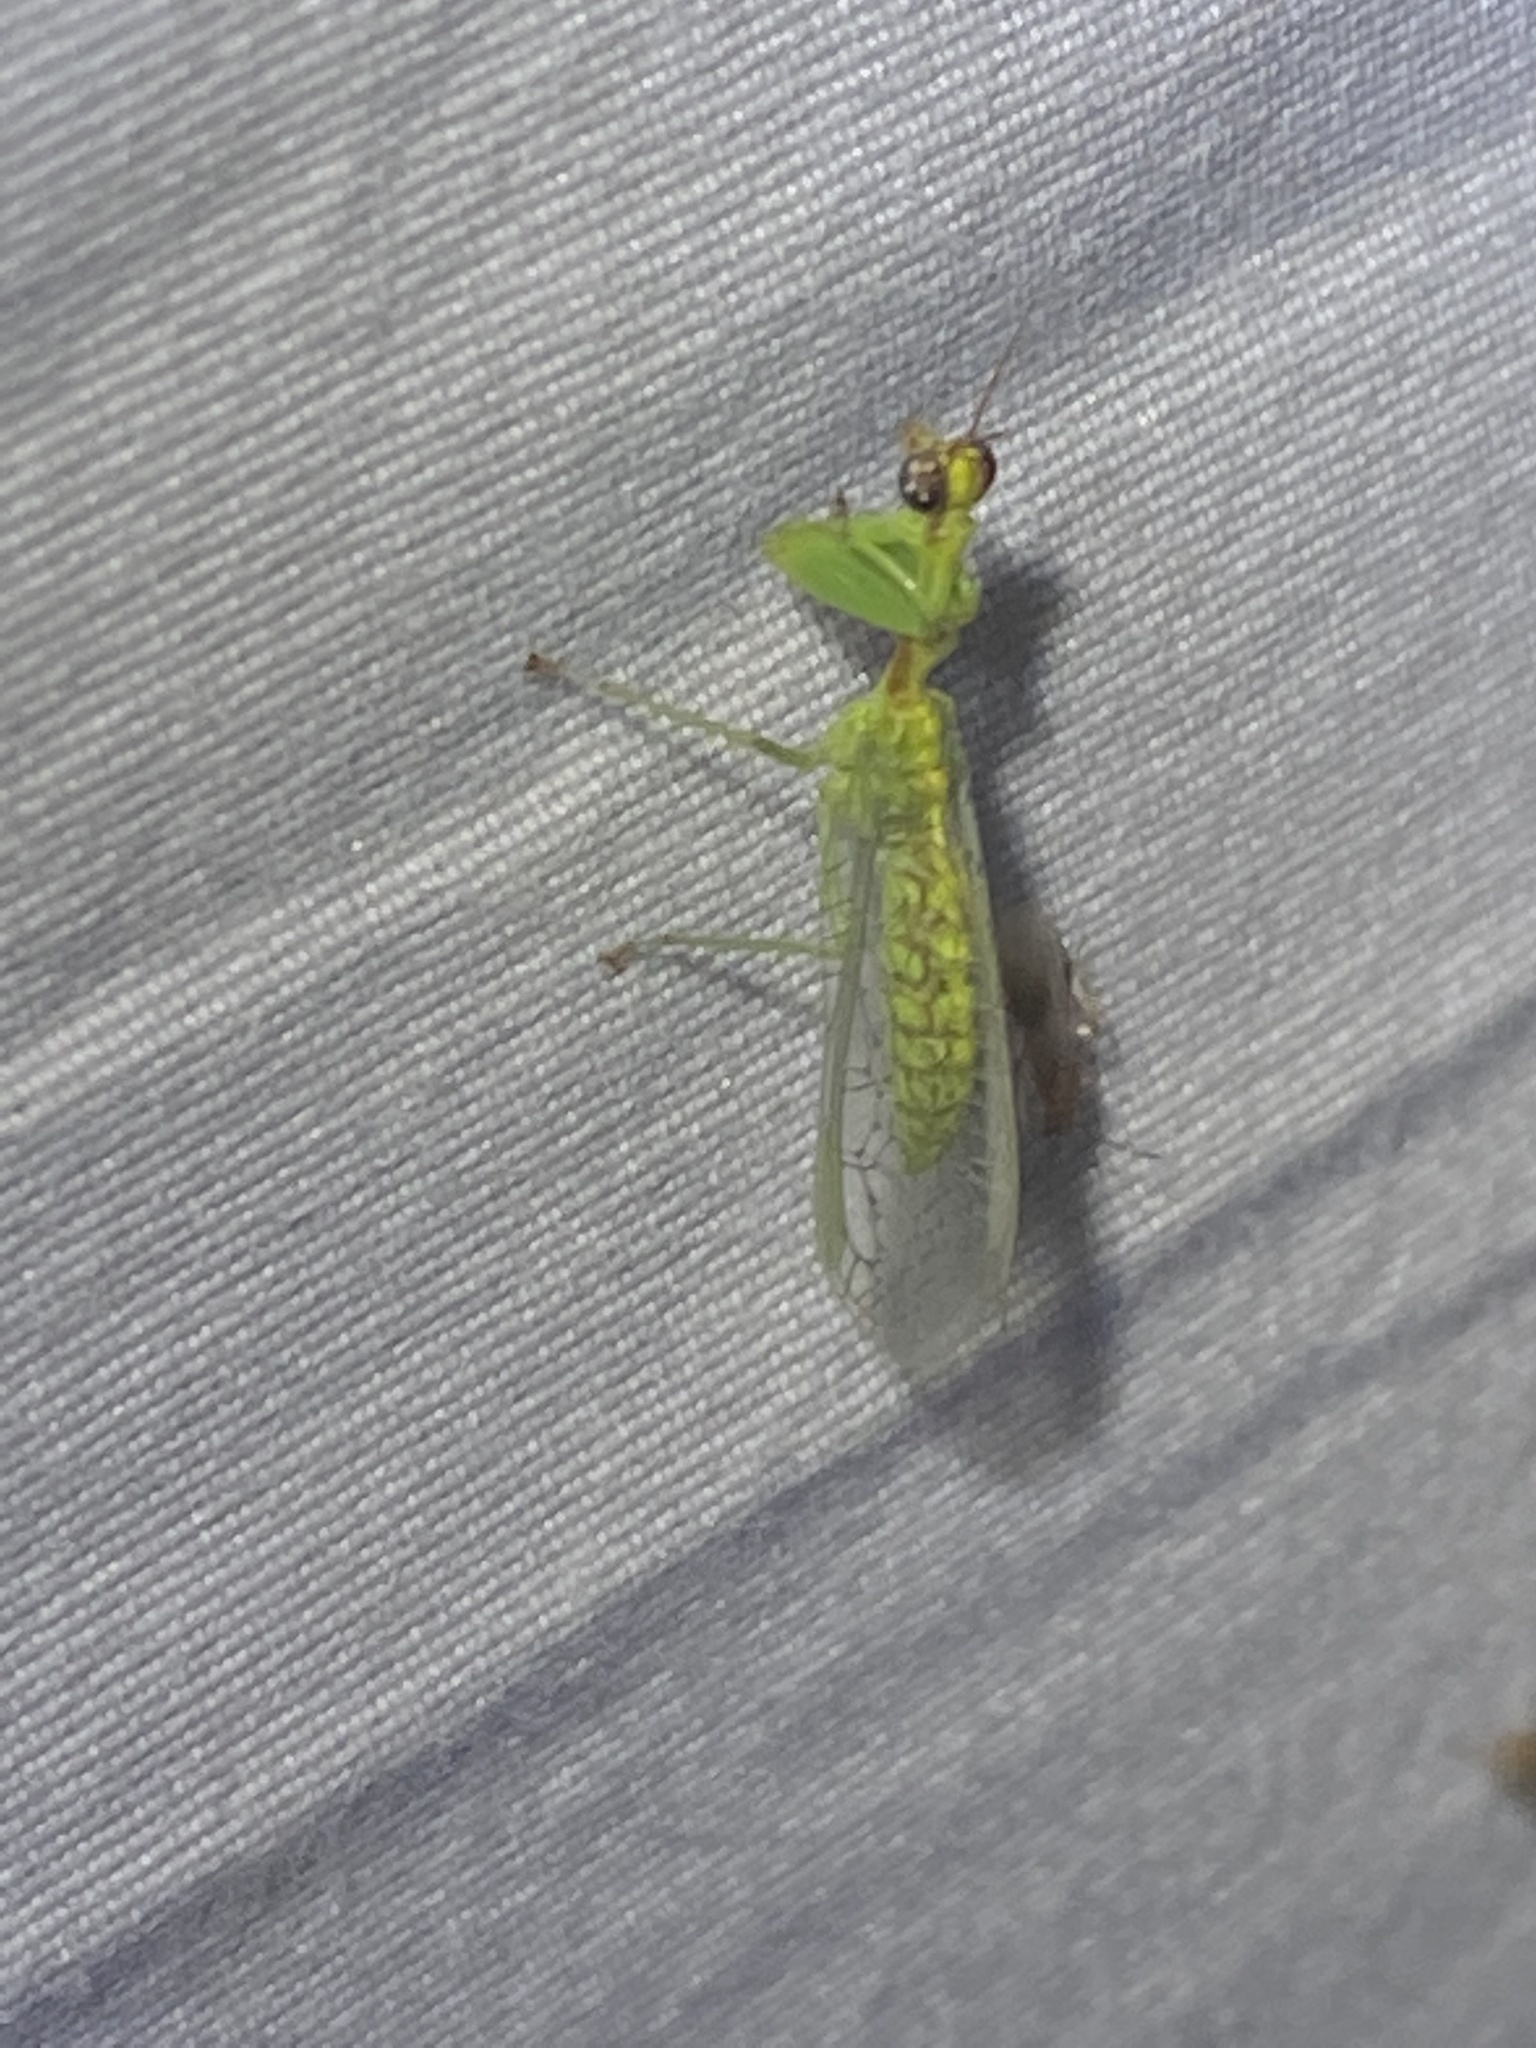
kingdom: Animalia
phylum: Arthropoda
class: Insecta
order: Neuroptera
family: Mantispidae
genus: Zeugomantispa
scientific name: Zeugomantispa minuta
